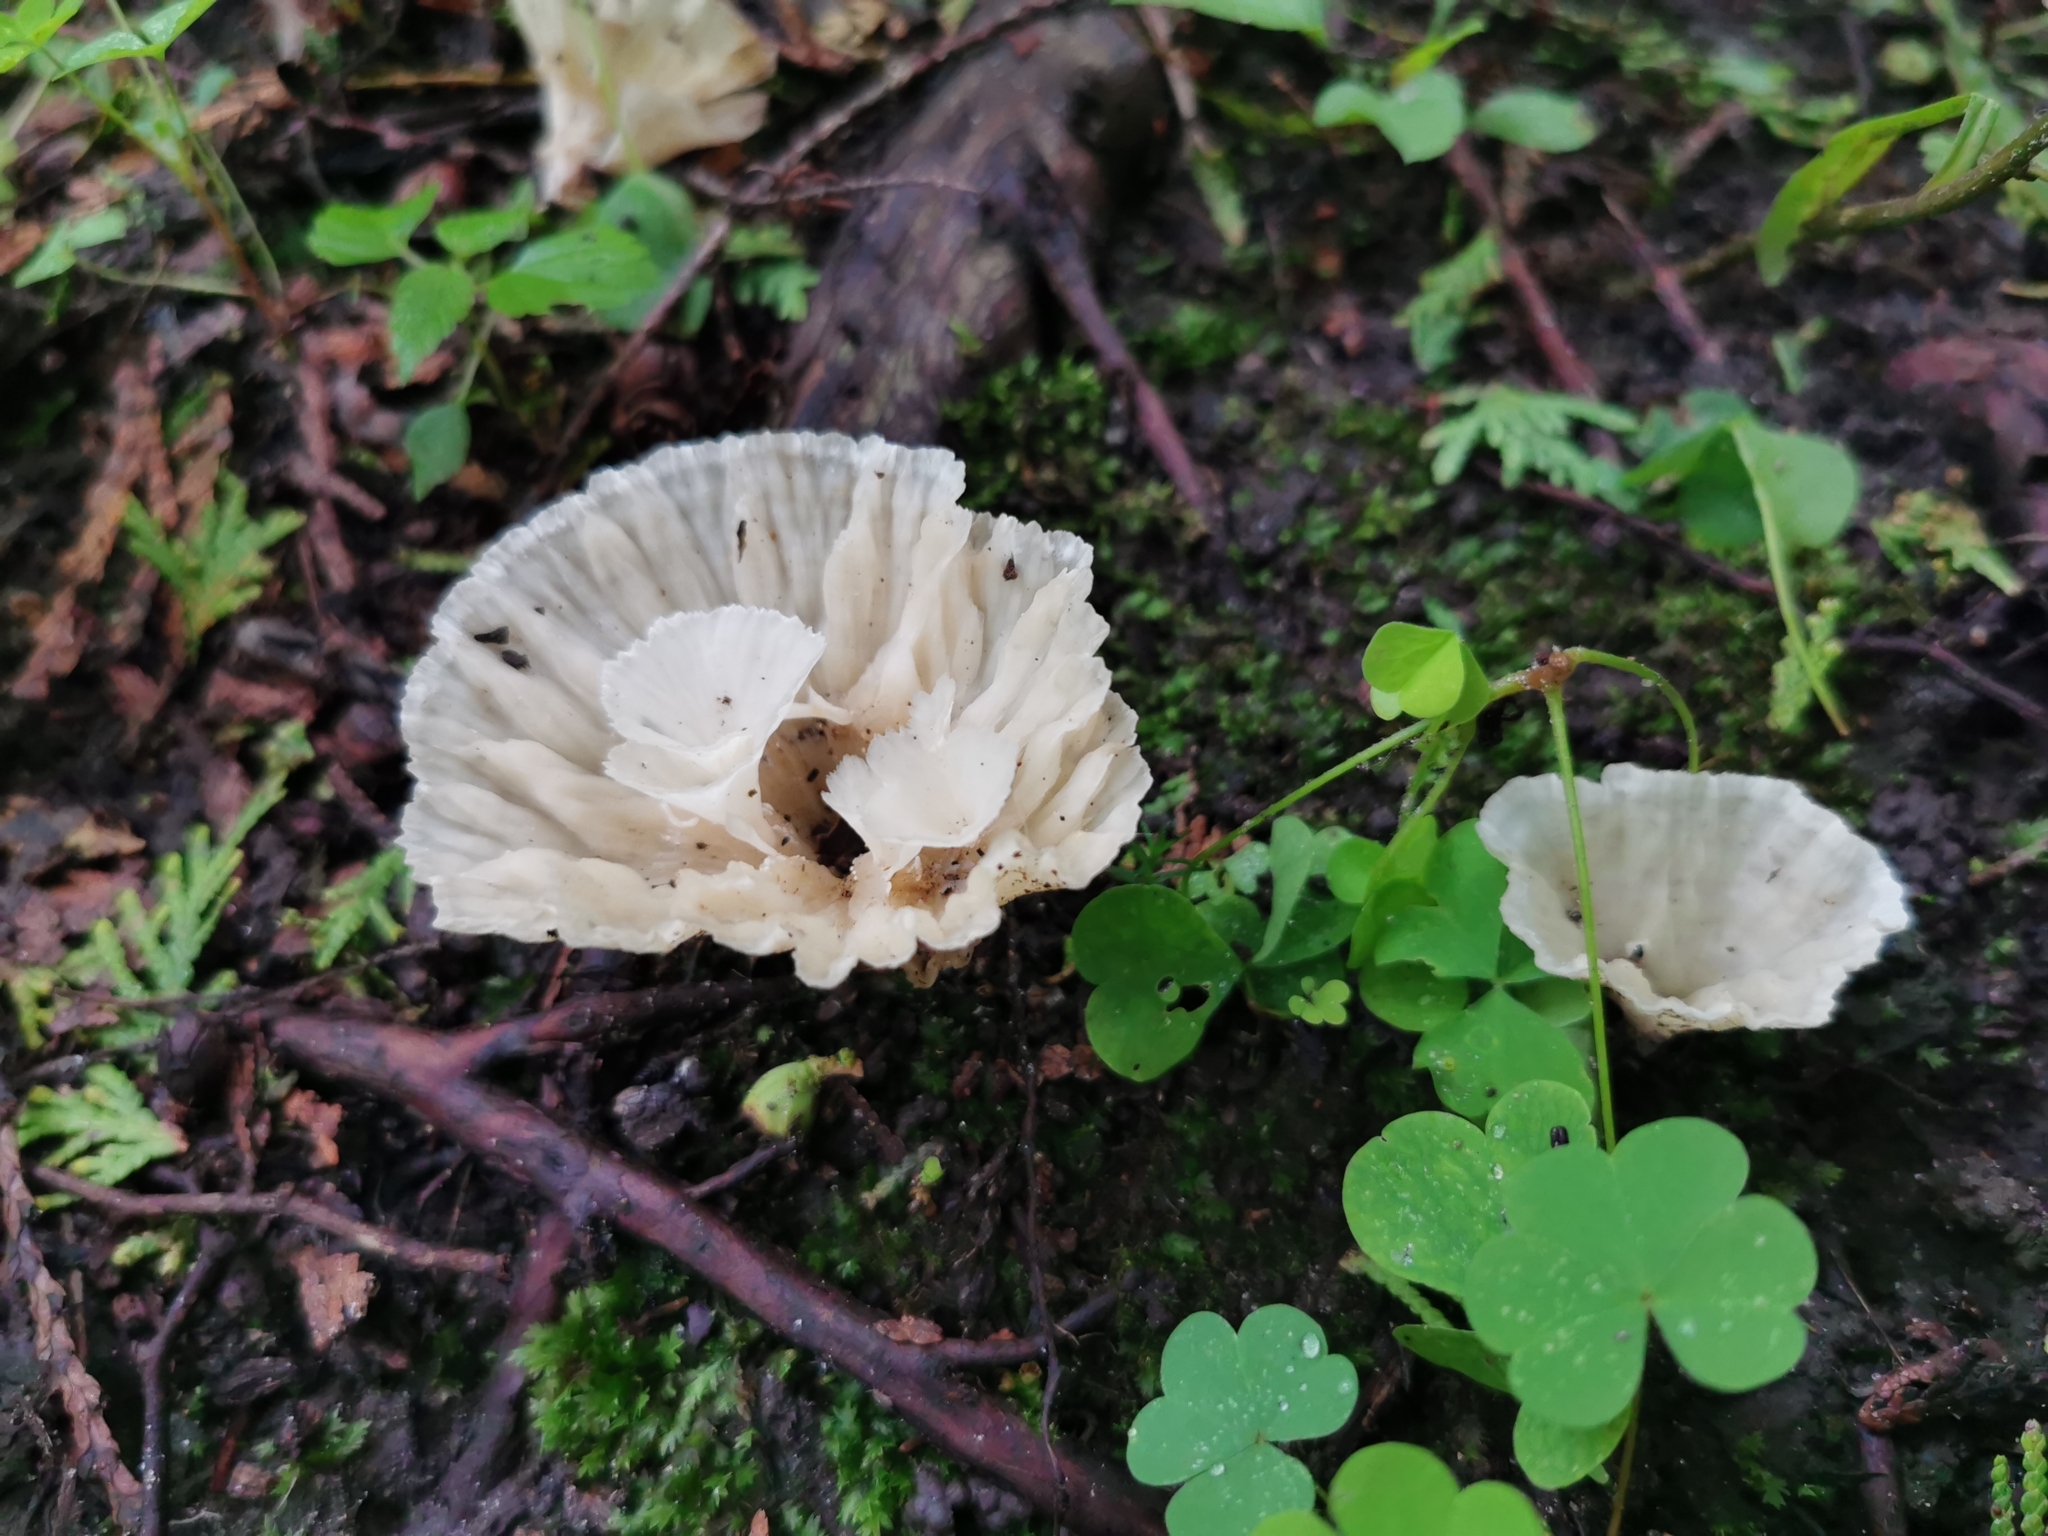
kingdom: Fungi
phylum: Basidiomycota
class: Agaricomycetes
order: Hymenochaetales
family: Rickenellaceae
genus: Cotylidia
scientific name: Cotylidia diaphana
